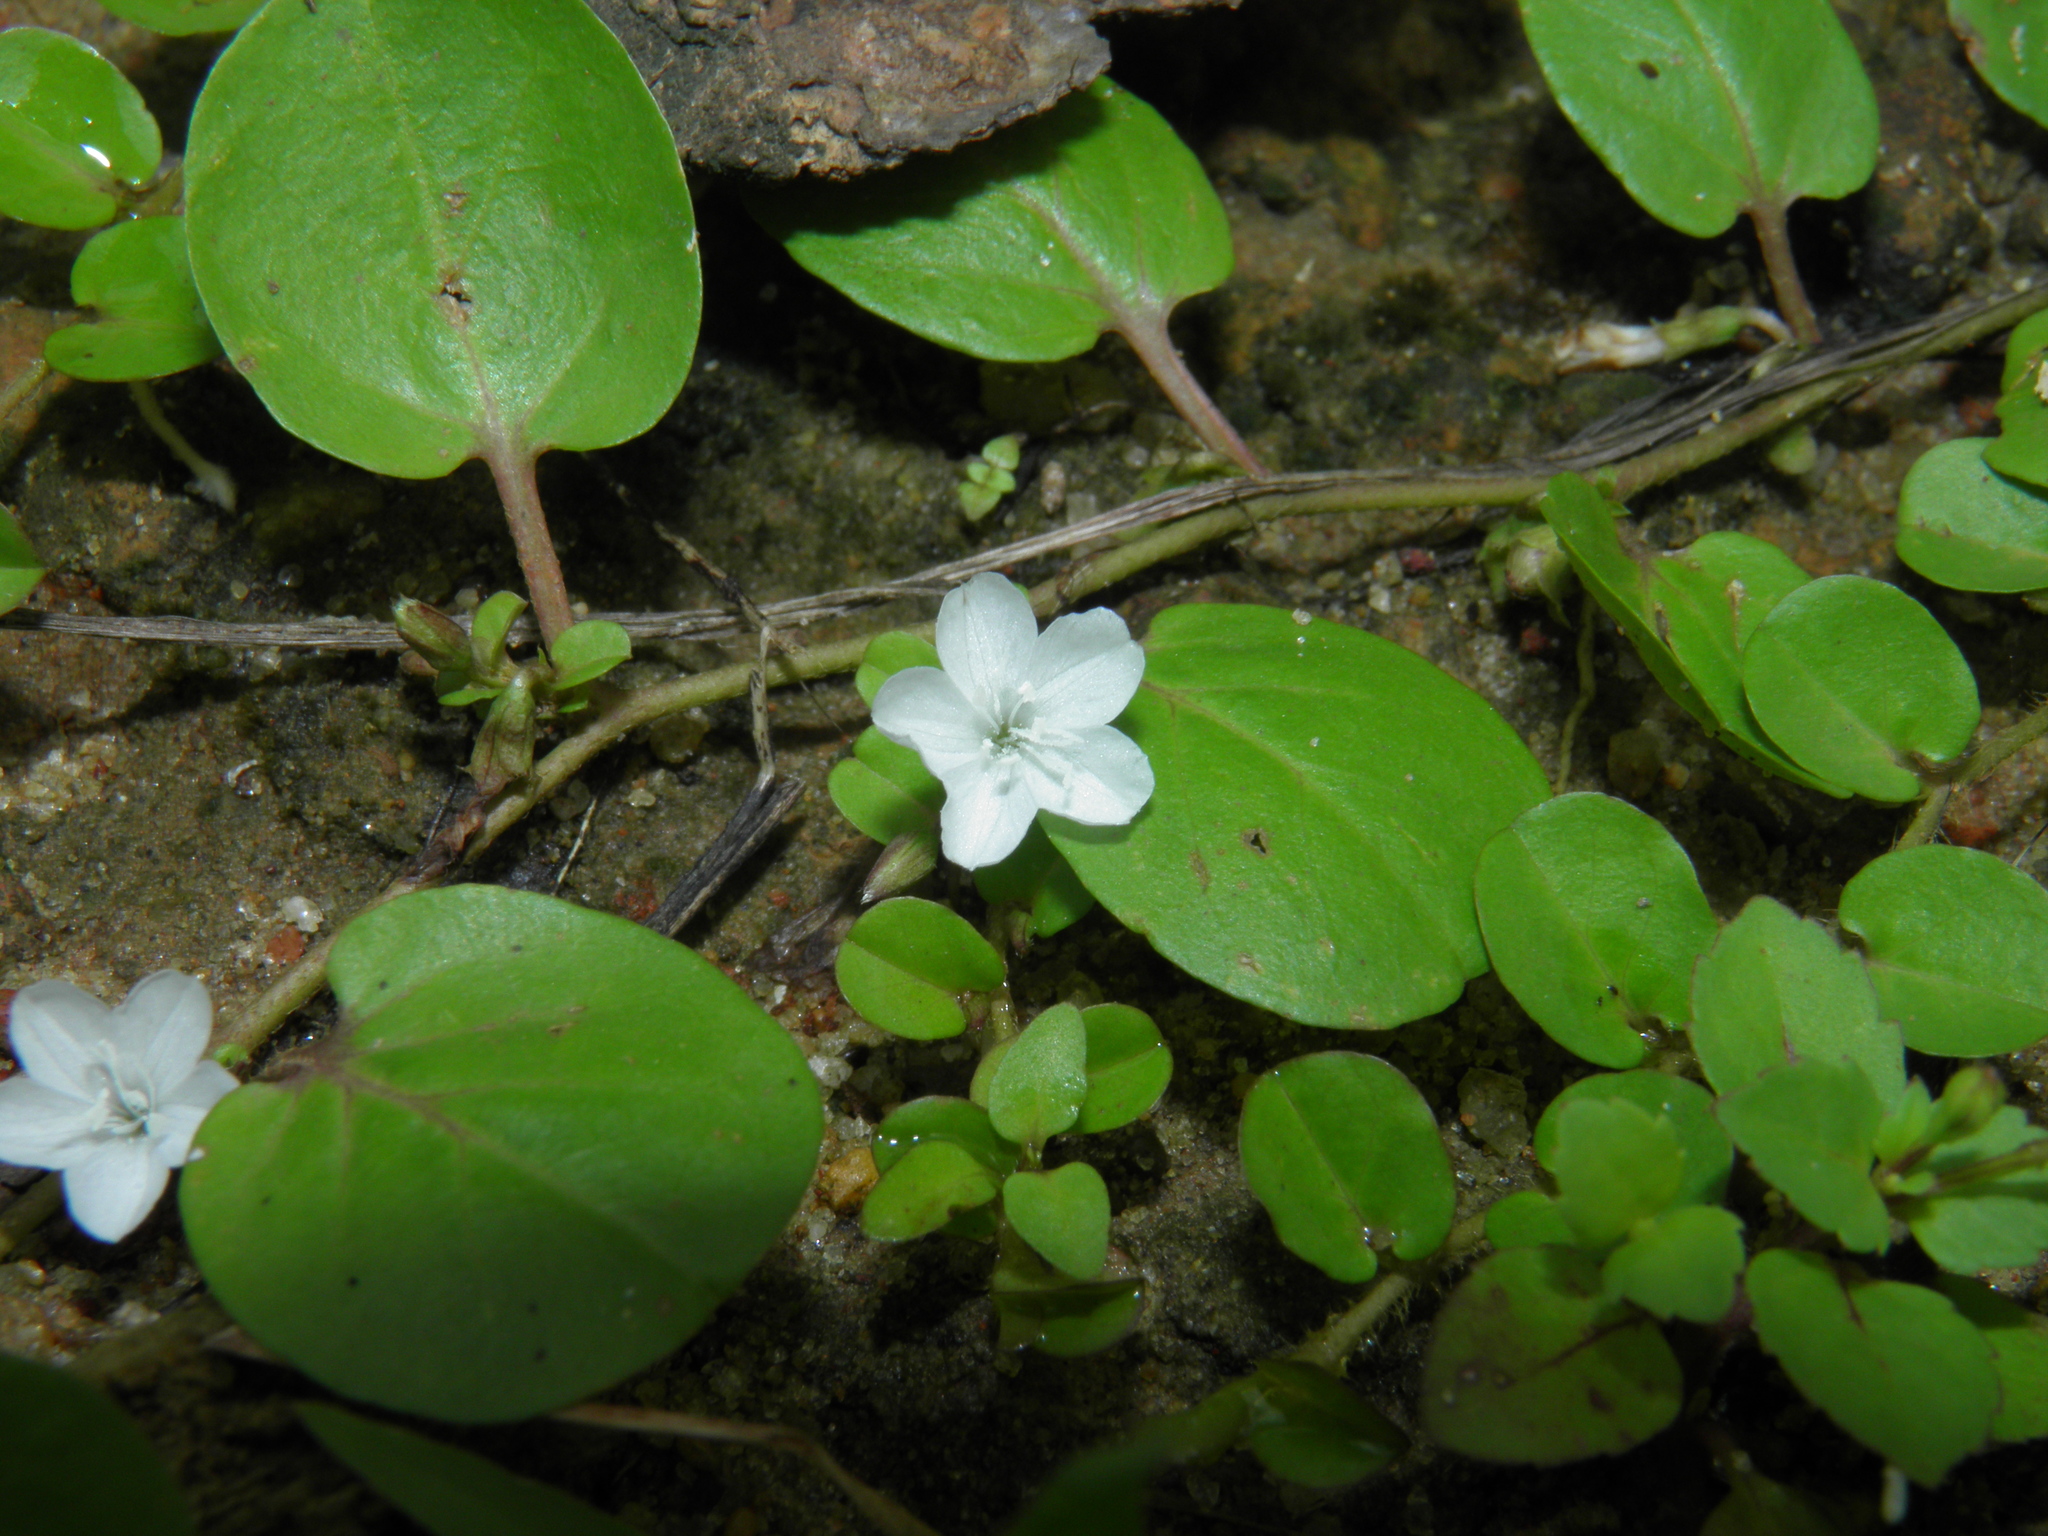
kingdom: Plantae
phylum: Tracheophyta
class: Magnoliopsida
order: Solanales
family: Convolvulaceae
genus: Evolvulus
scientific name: Evolvulus nummularius
